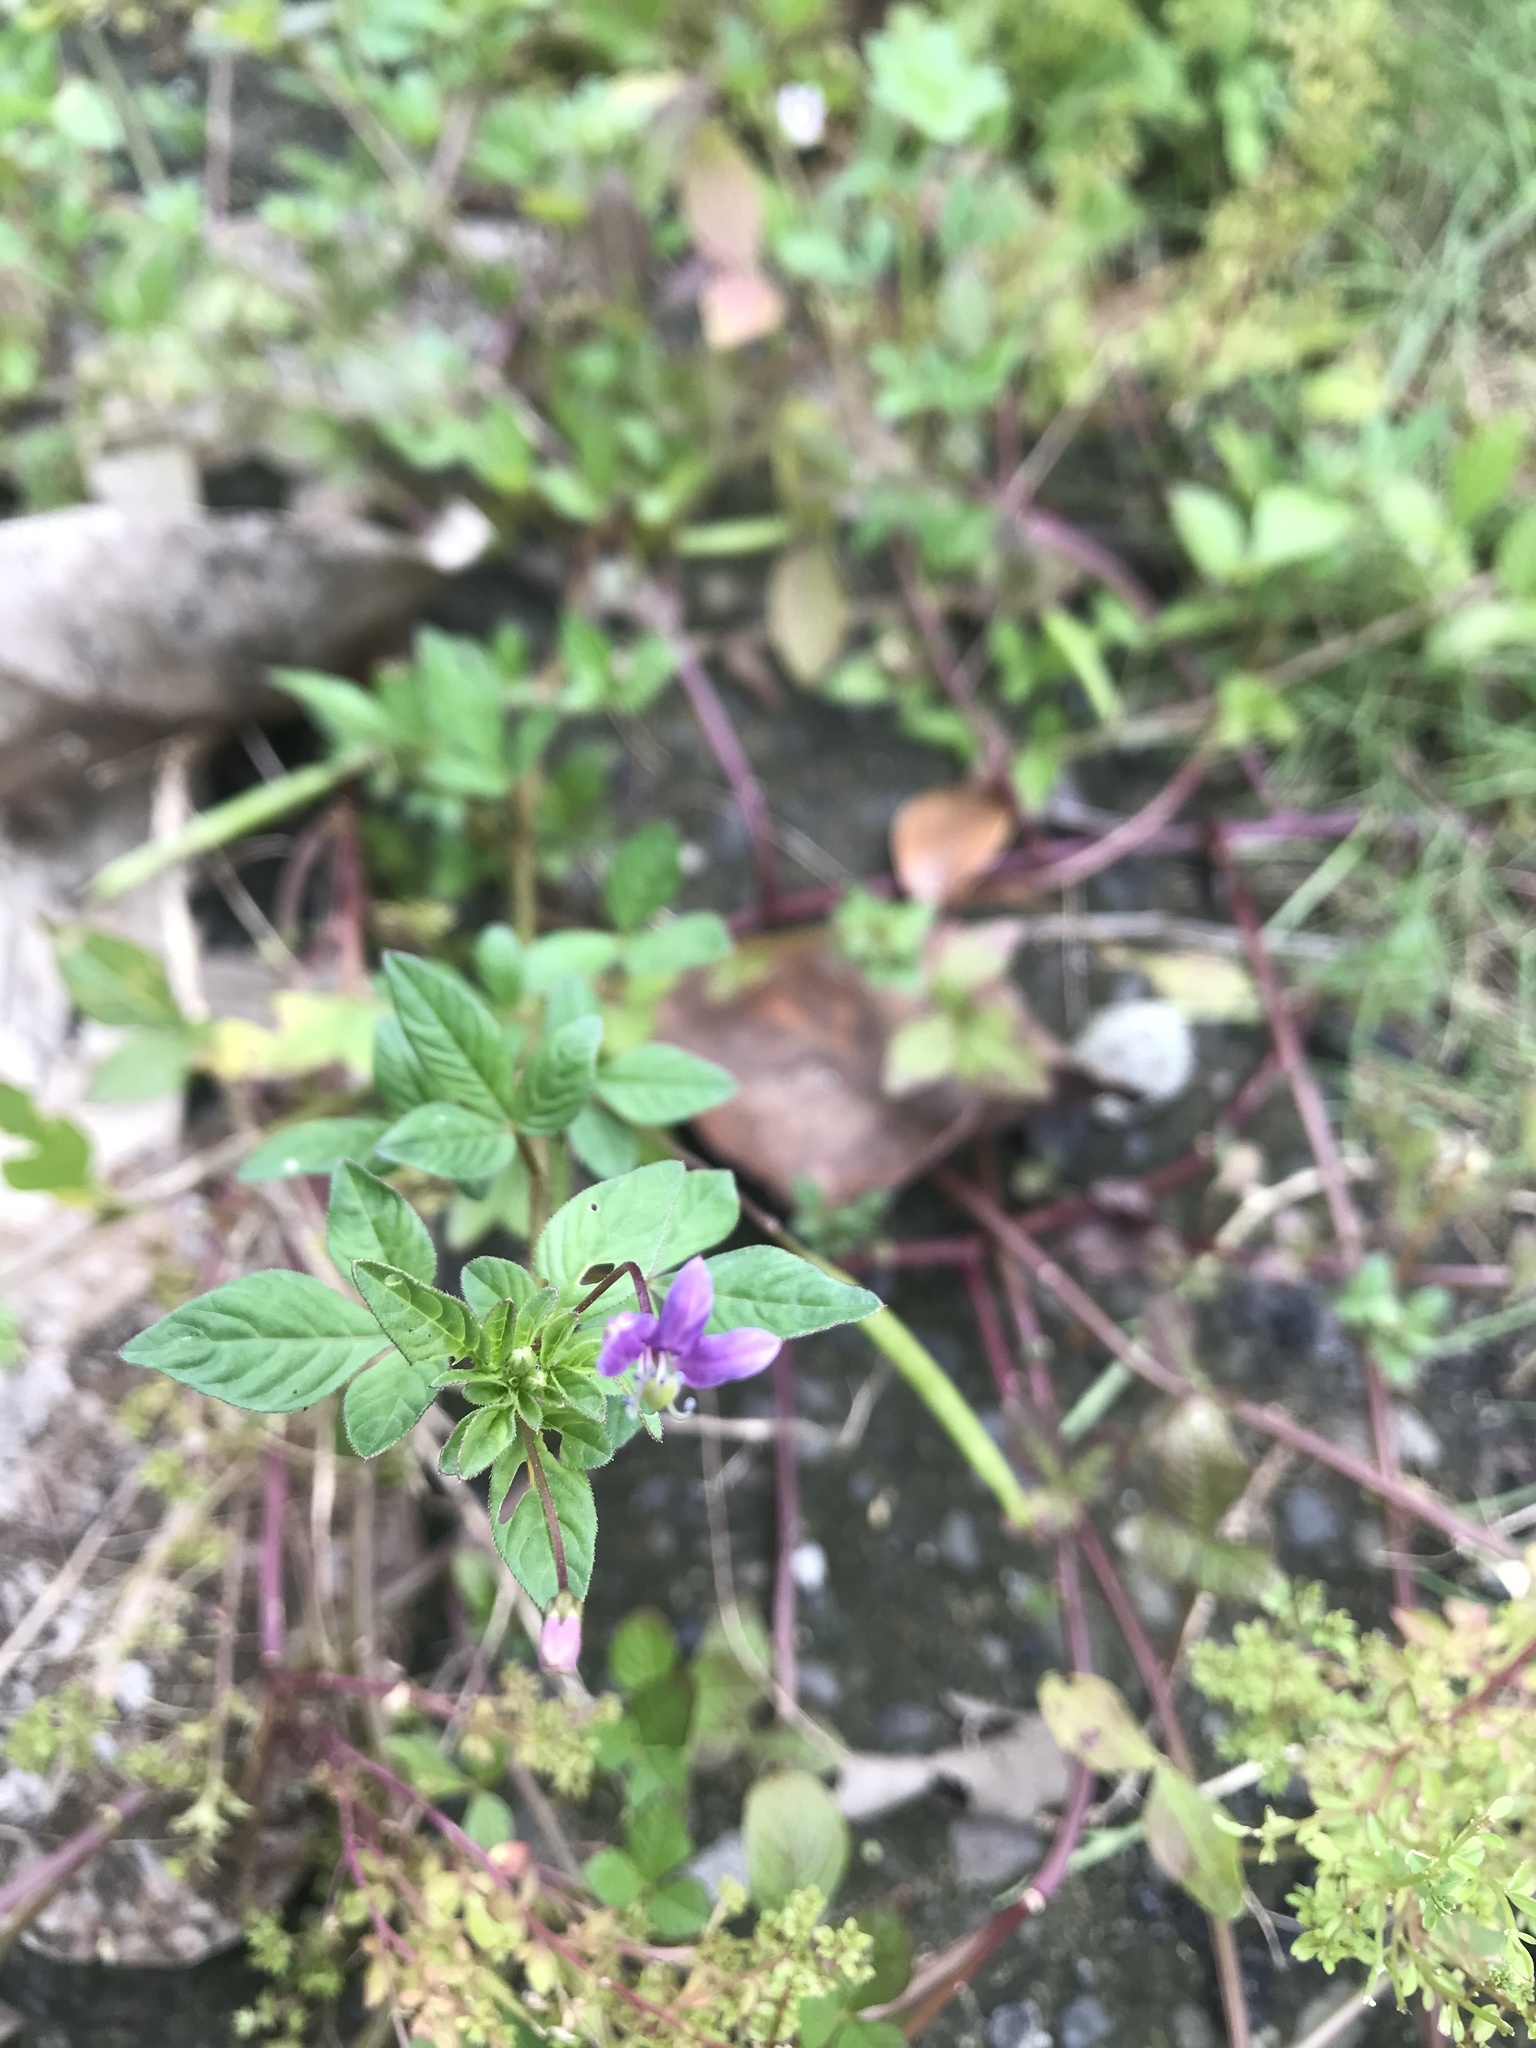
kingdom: Plantae
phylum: Tracheophyta
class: Magnoliopsida
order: Brassicales
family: Cleomaceae
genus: Sieruela
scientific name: Sieruela rutidosperma
